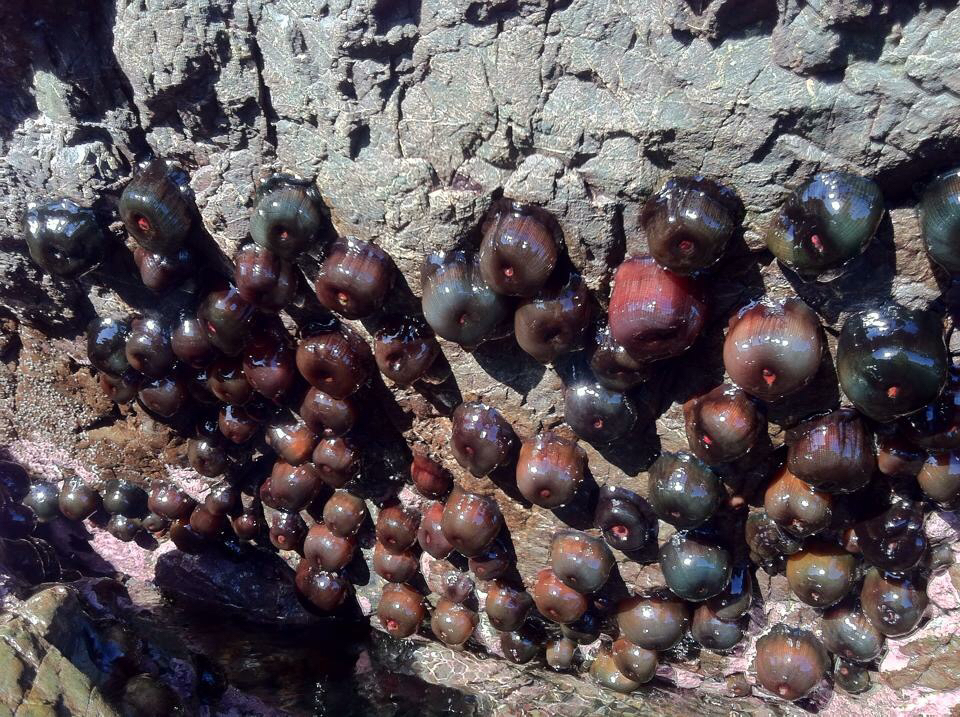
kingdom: Animalia
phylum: Cnidaria
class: Anthozoa
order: Actiniaria
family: Actiniidae
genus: Actinia
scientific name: Actinia tenebrosa
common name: Waratah anemone
